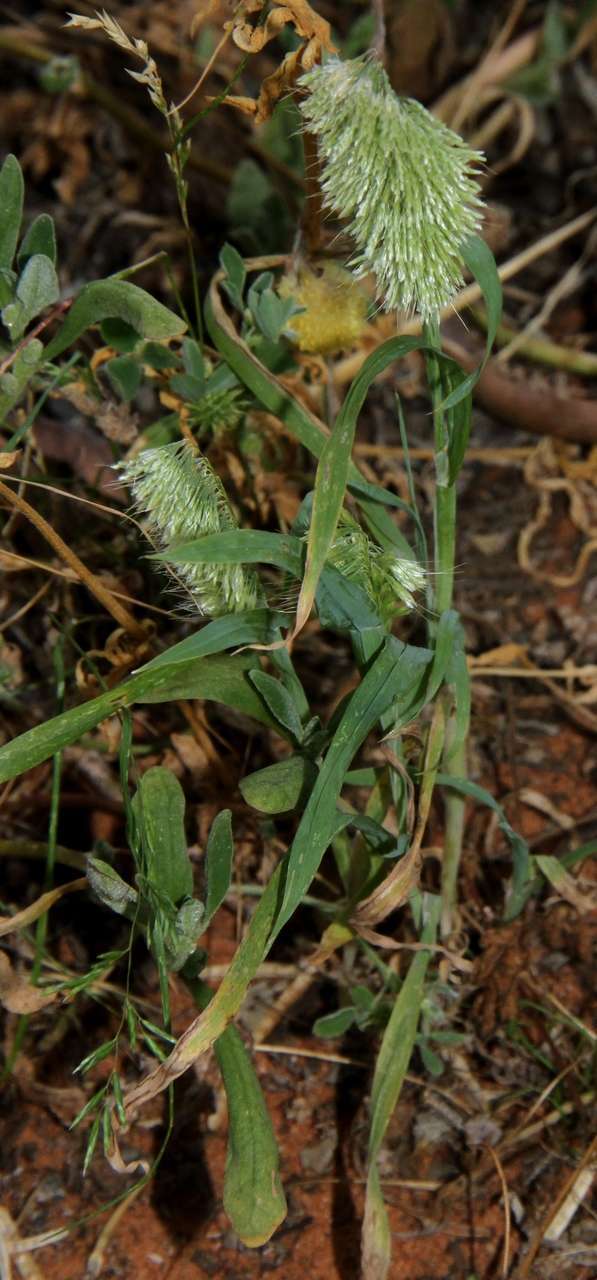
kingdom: Plantae
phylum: Tracheophyta
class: Liliopsida
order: Poales
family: Poaceae
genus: Lamarckia
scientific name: Lamarckia aurea
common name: Golden dog's-tail
